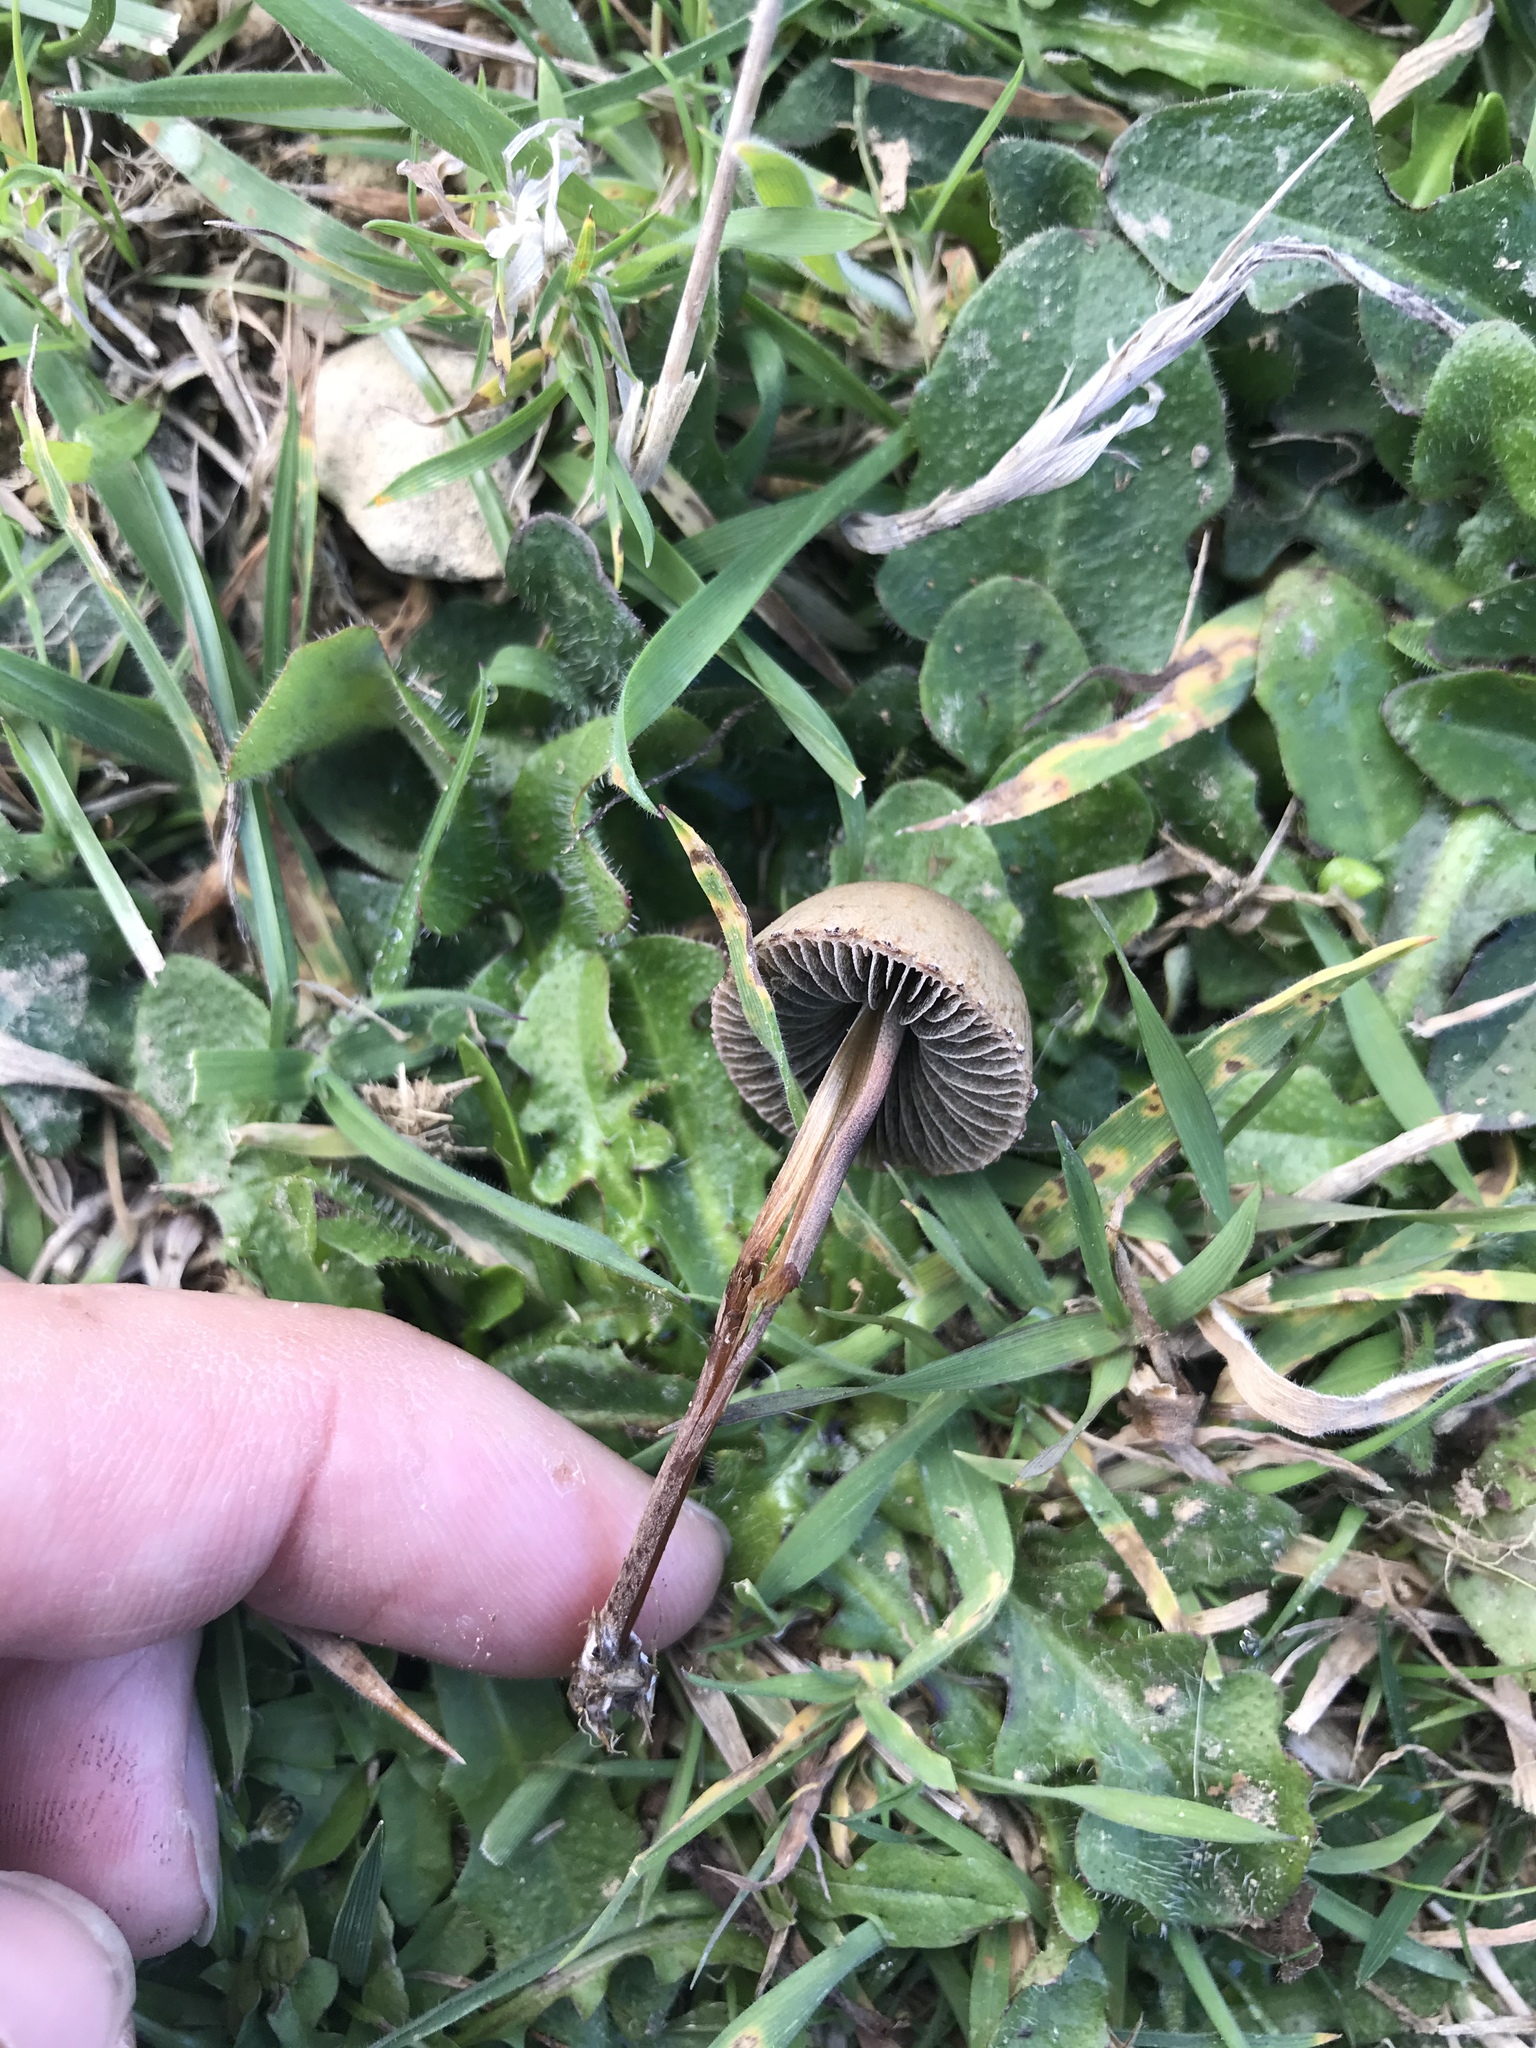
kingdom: Fungi
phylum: Basidiomycota
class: Agaricomycetes
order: Agaricales
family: Bolbitiaceae
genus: Panaeolus
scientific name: Panaeolus papilionaceus
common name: Petticoat mottlegill
